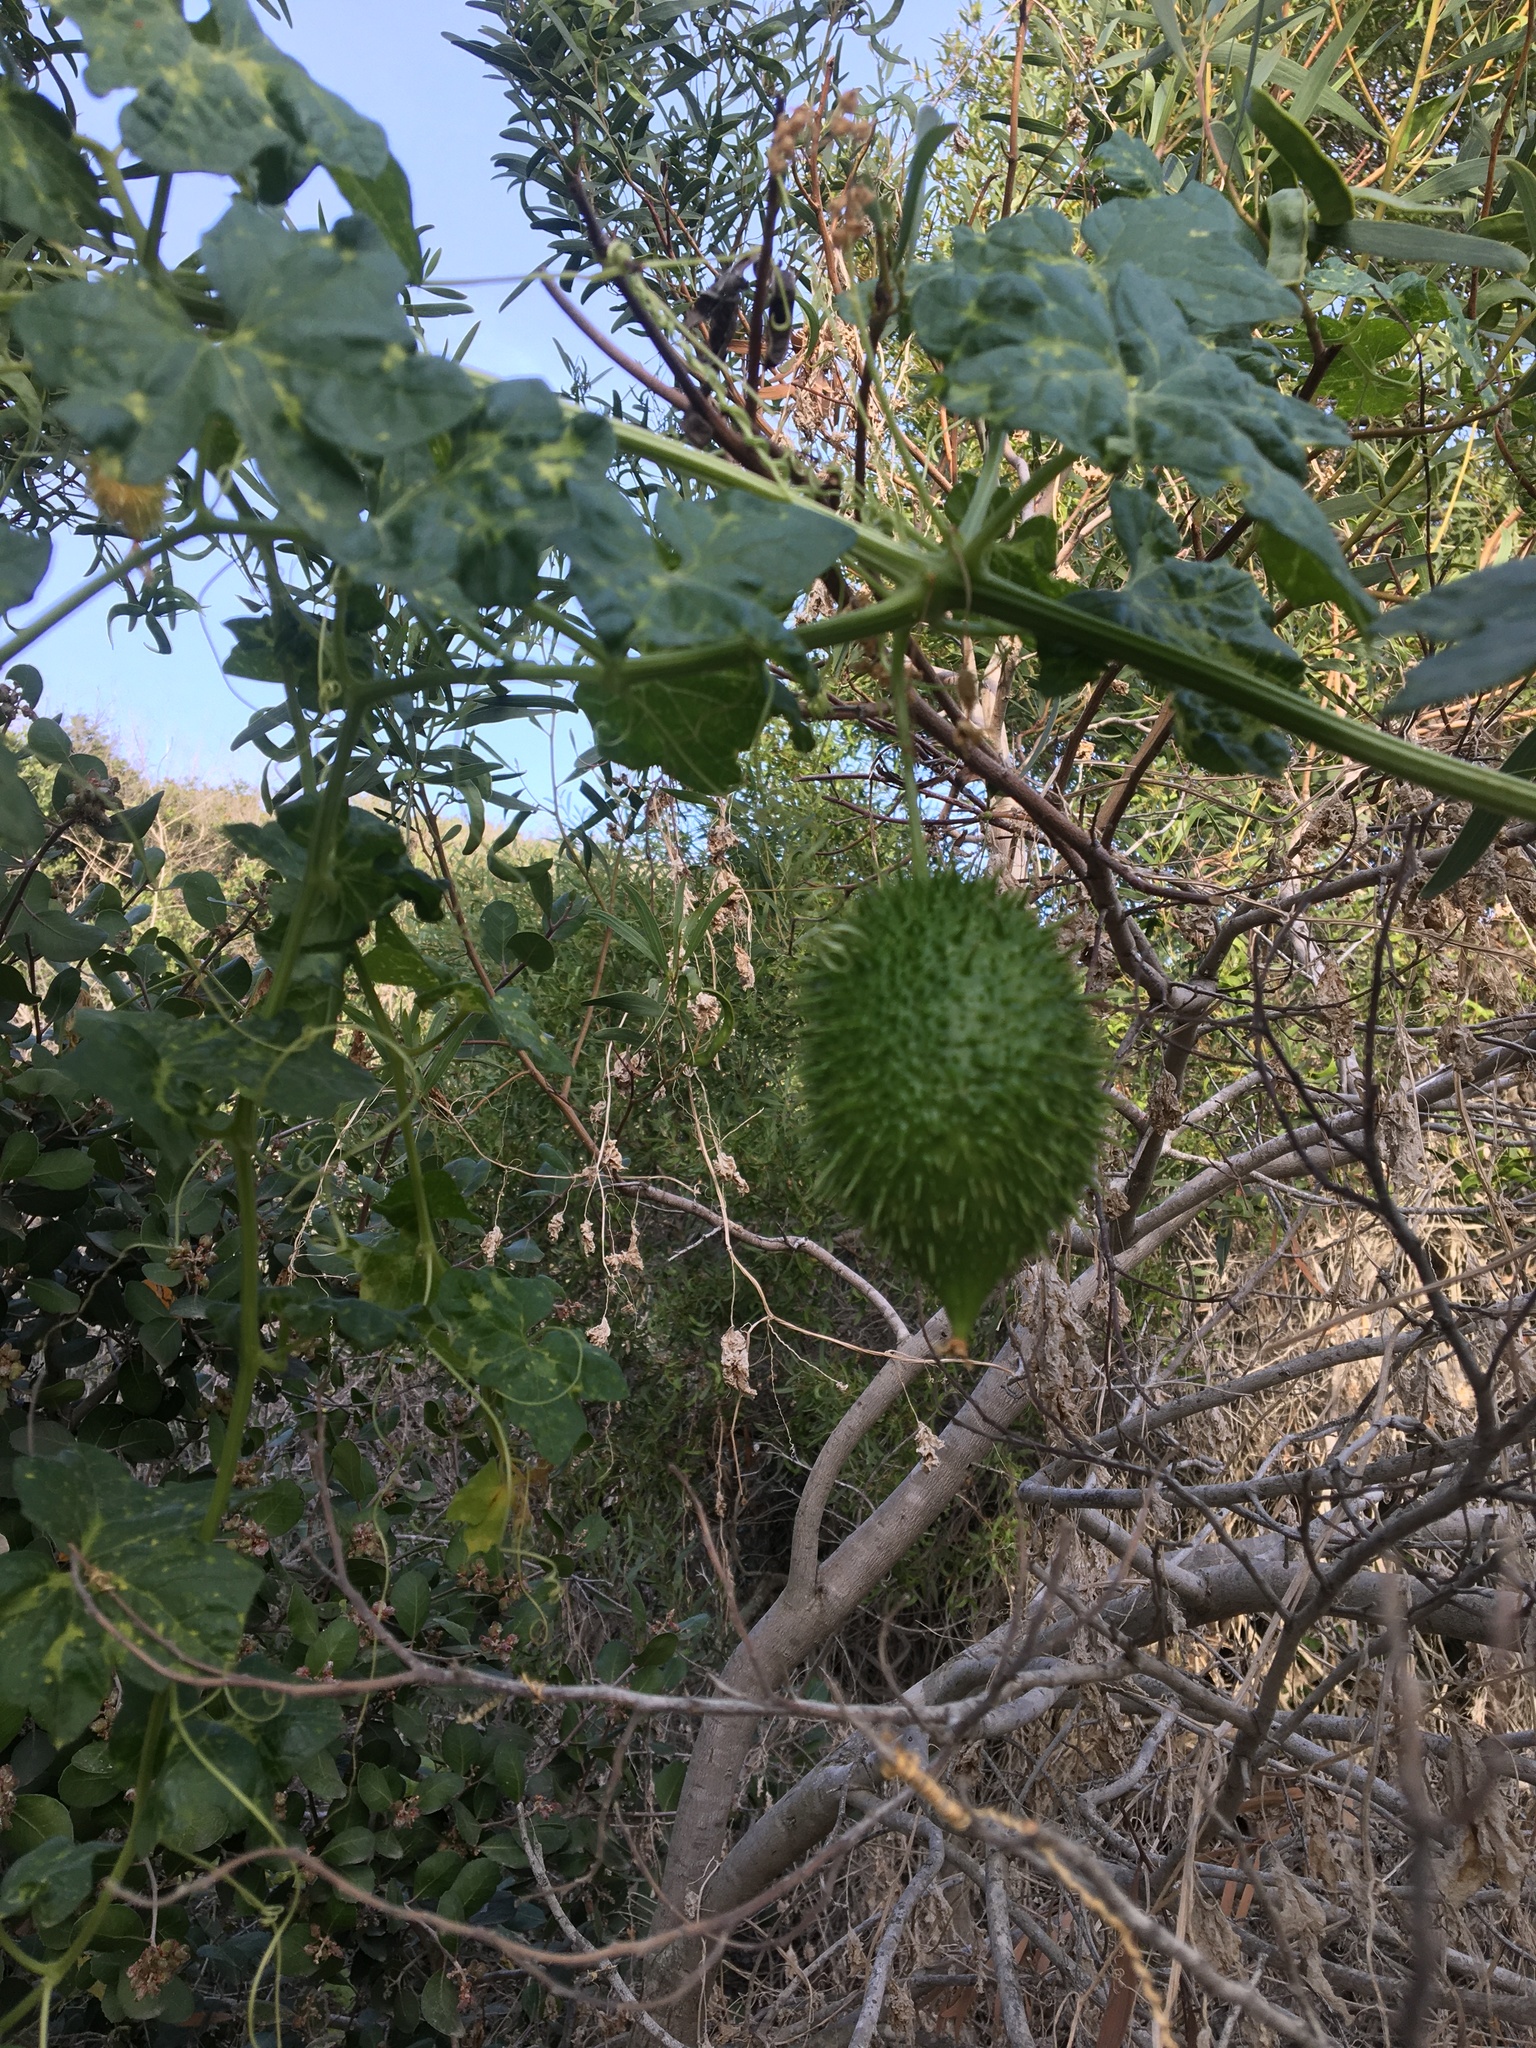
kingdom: Plantae
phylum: Tracheophyta
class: Magnoliopsida
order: Cucurbitales
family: Cucurbitaceae
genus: Marah
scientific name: Marah macrocarpa
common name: Cucamonga manroot
